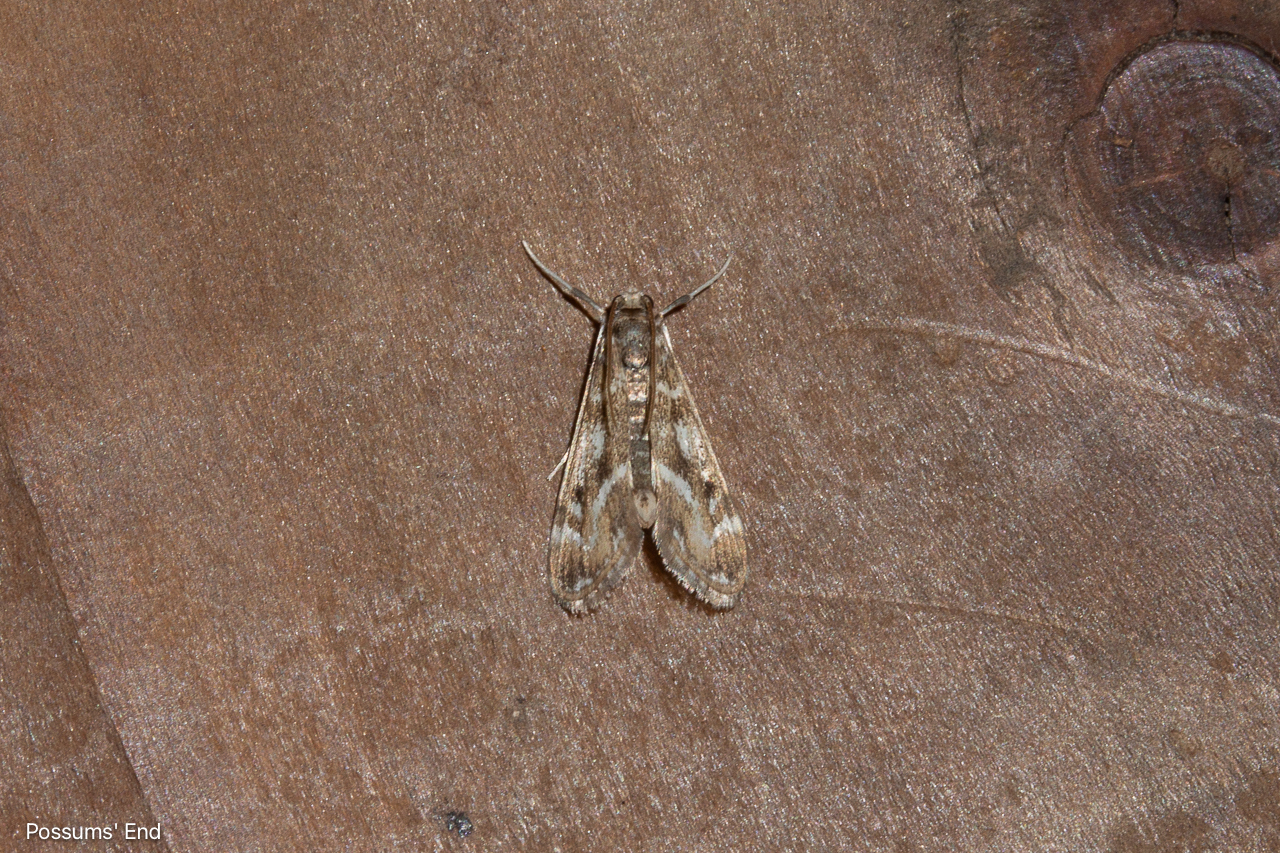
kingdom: Animalia
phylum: Arthropoda
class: Insecta
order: Lepidoptera
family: Crambidae
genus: Hygraula
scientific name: Hygraula nitens
